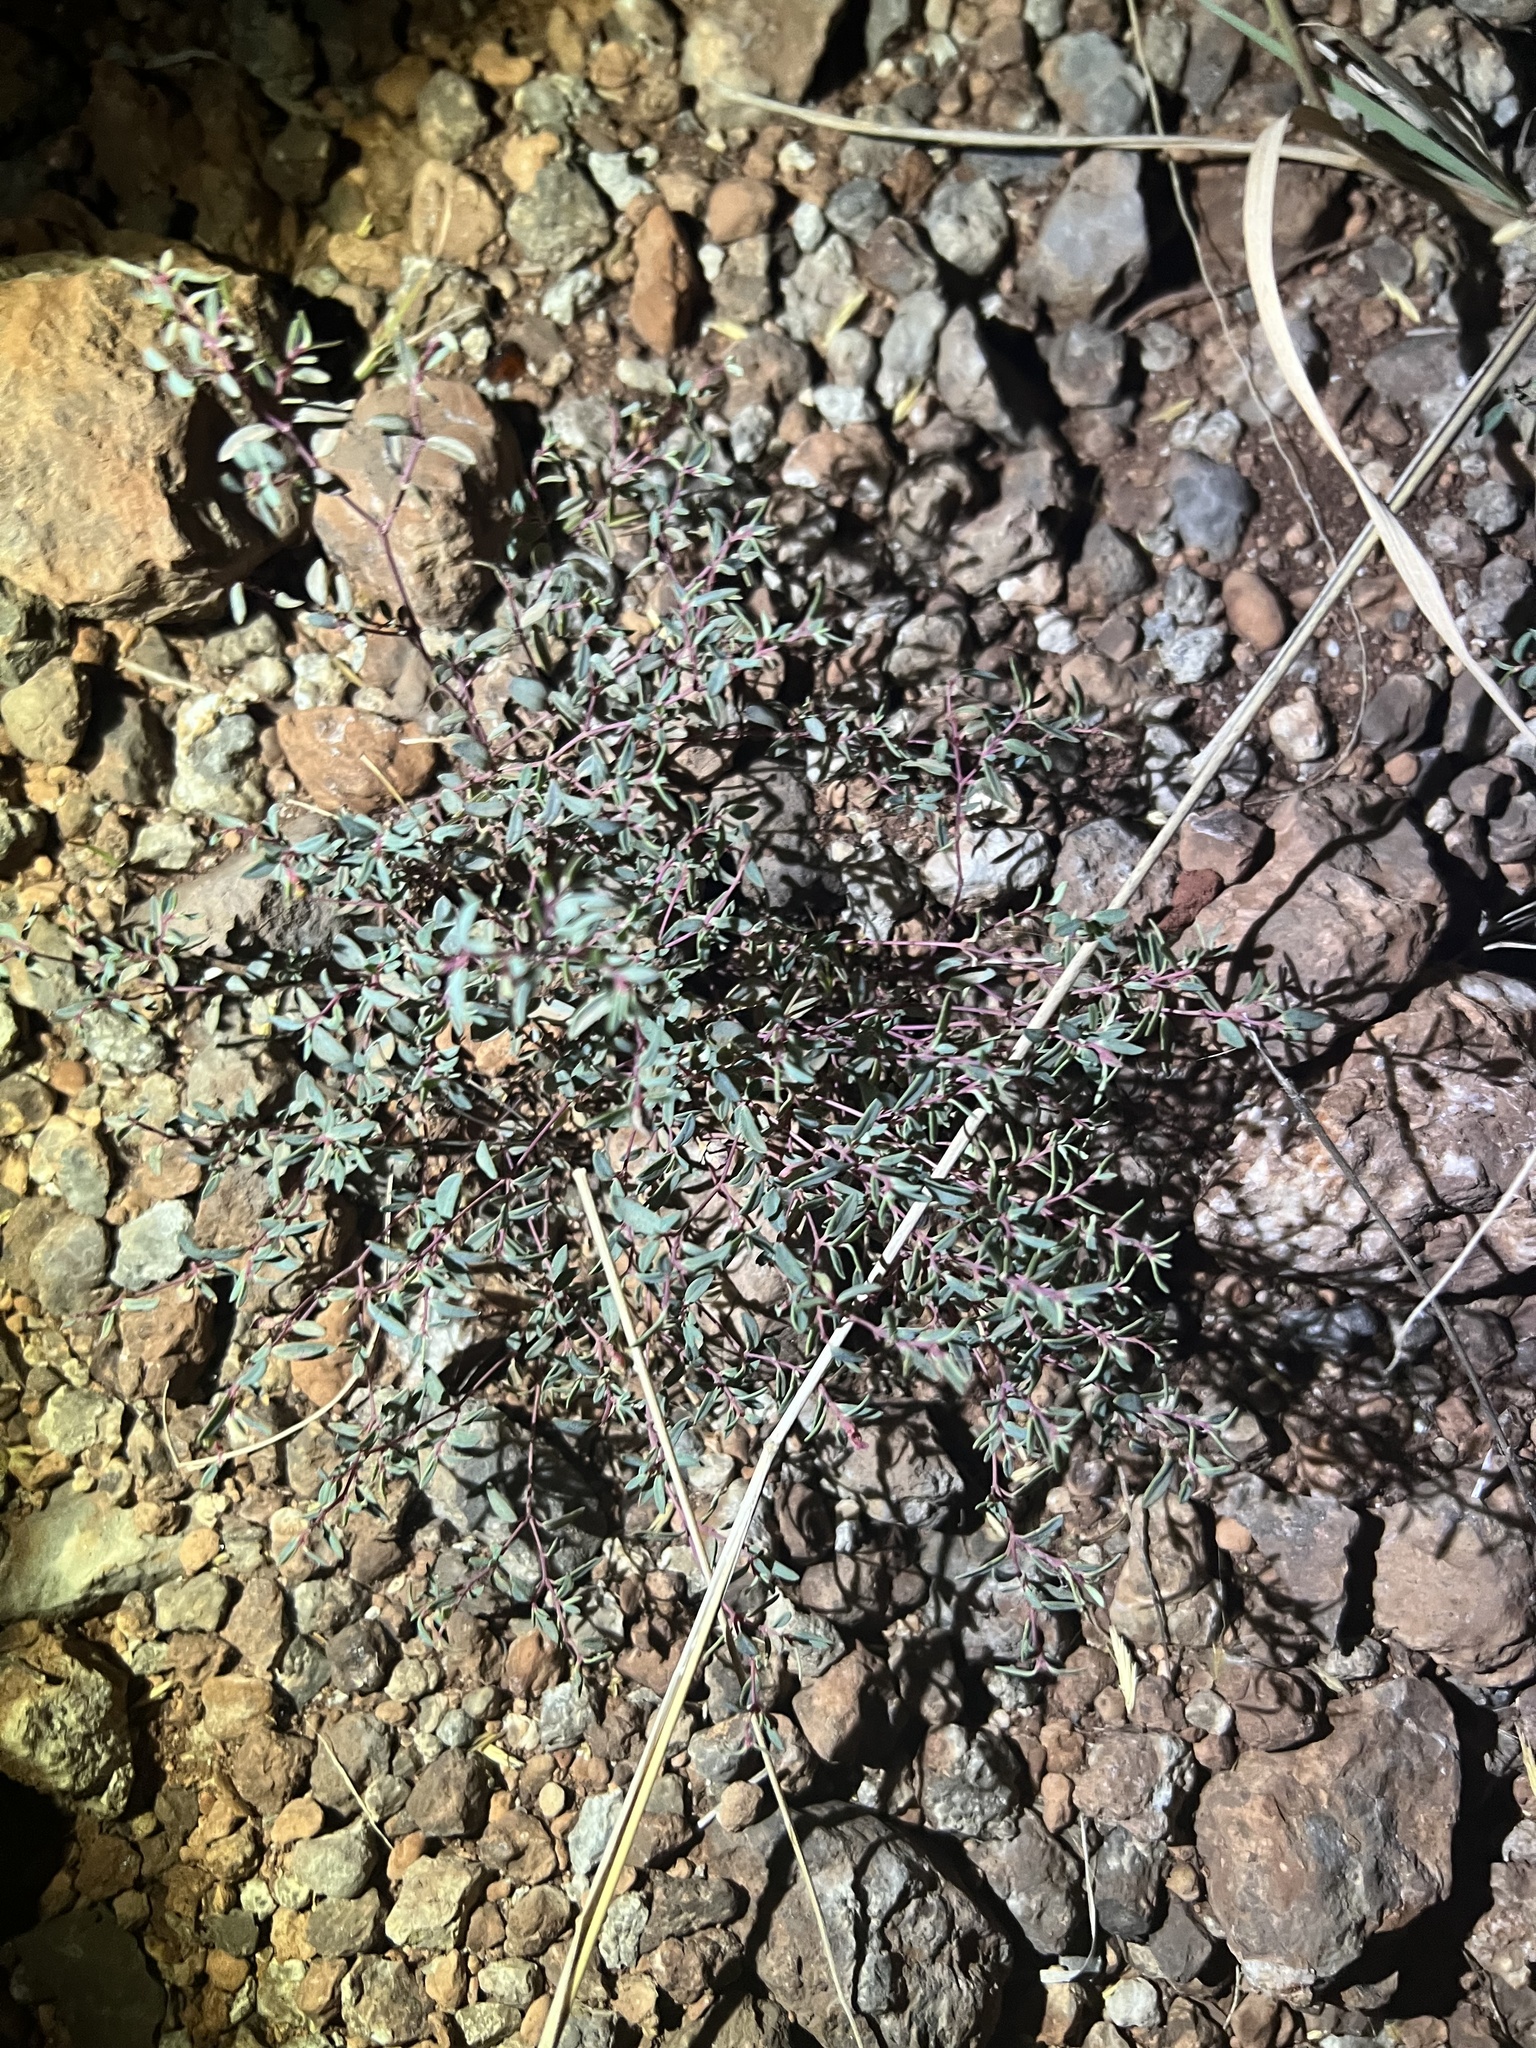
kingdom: Plantae
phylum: Tracheophyta
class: Magnoliopsida
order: Malpighiales
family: Euphorbiaceae
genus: Euphorbia
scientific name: Euphorbia chaetocalyx
